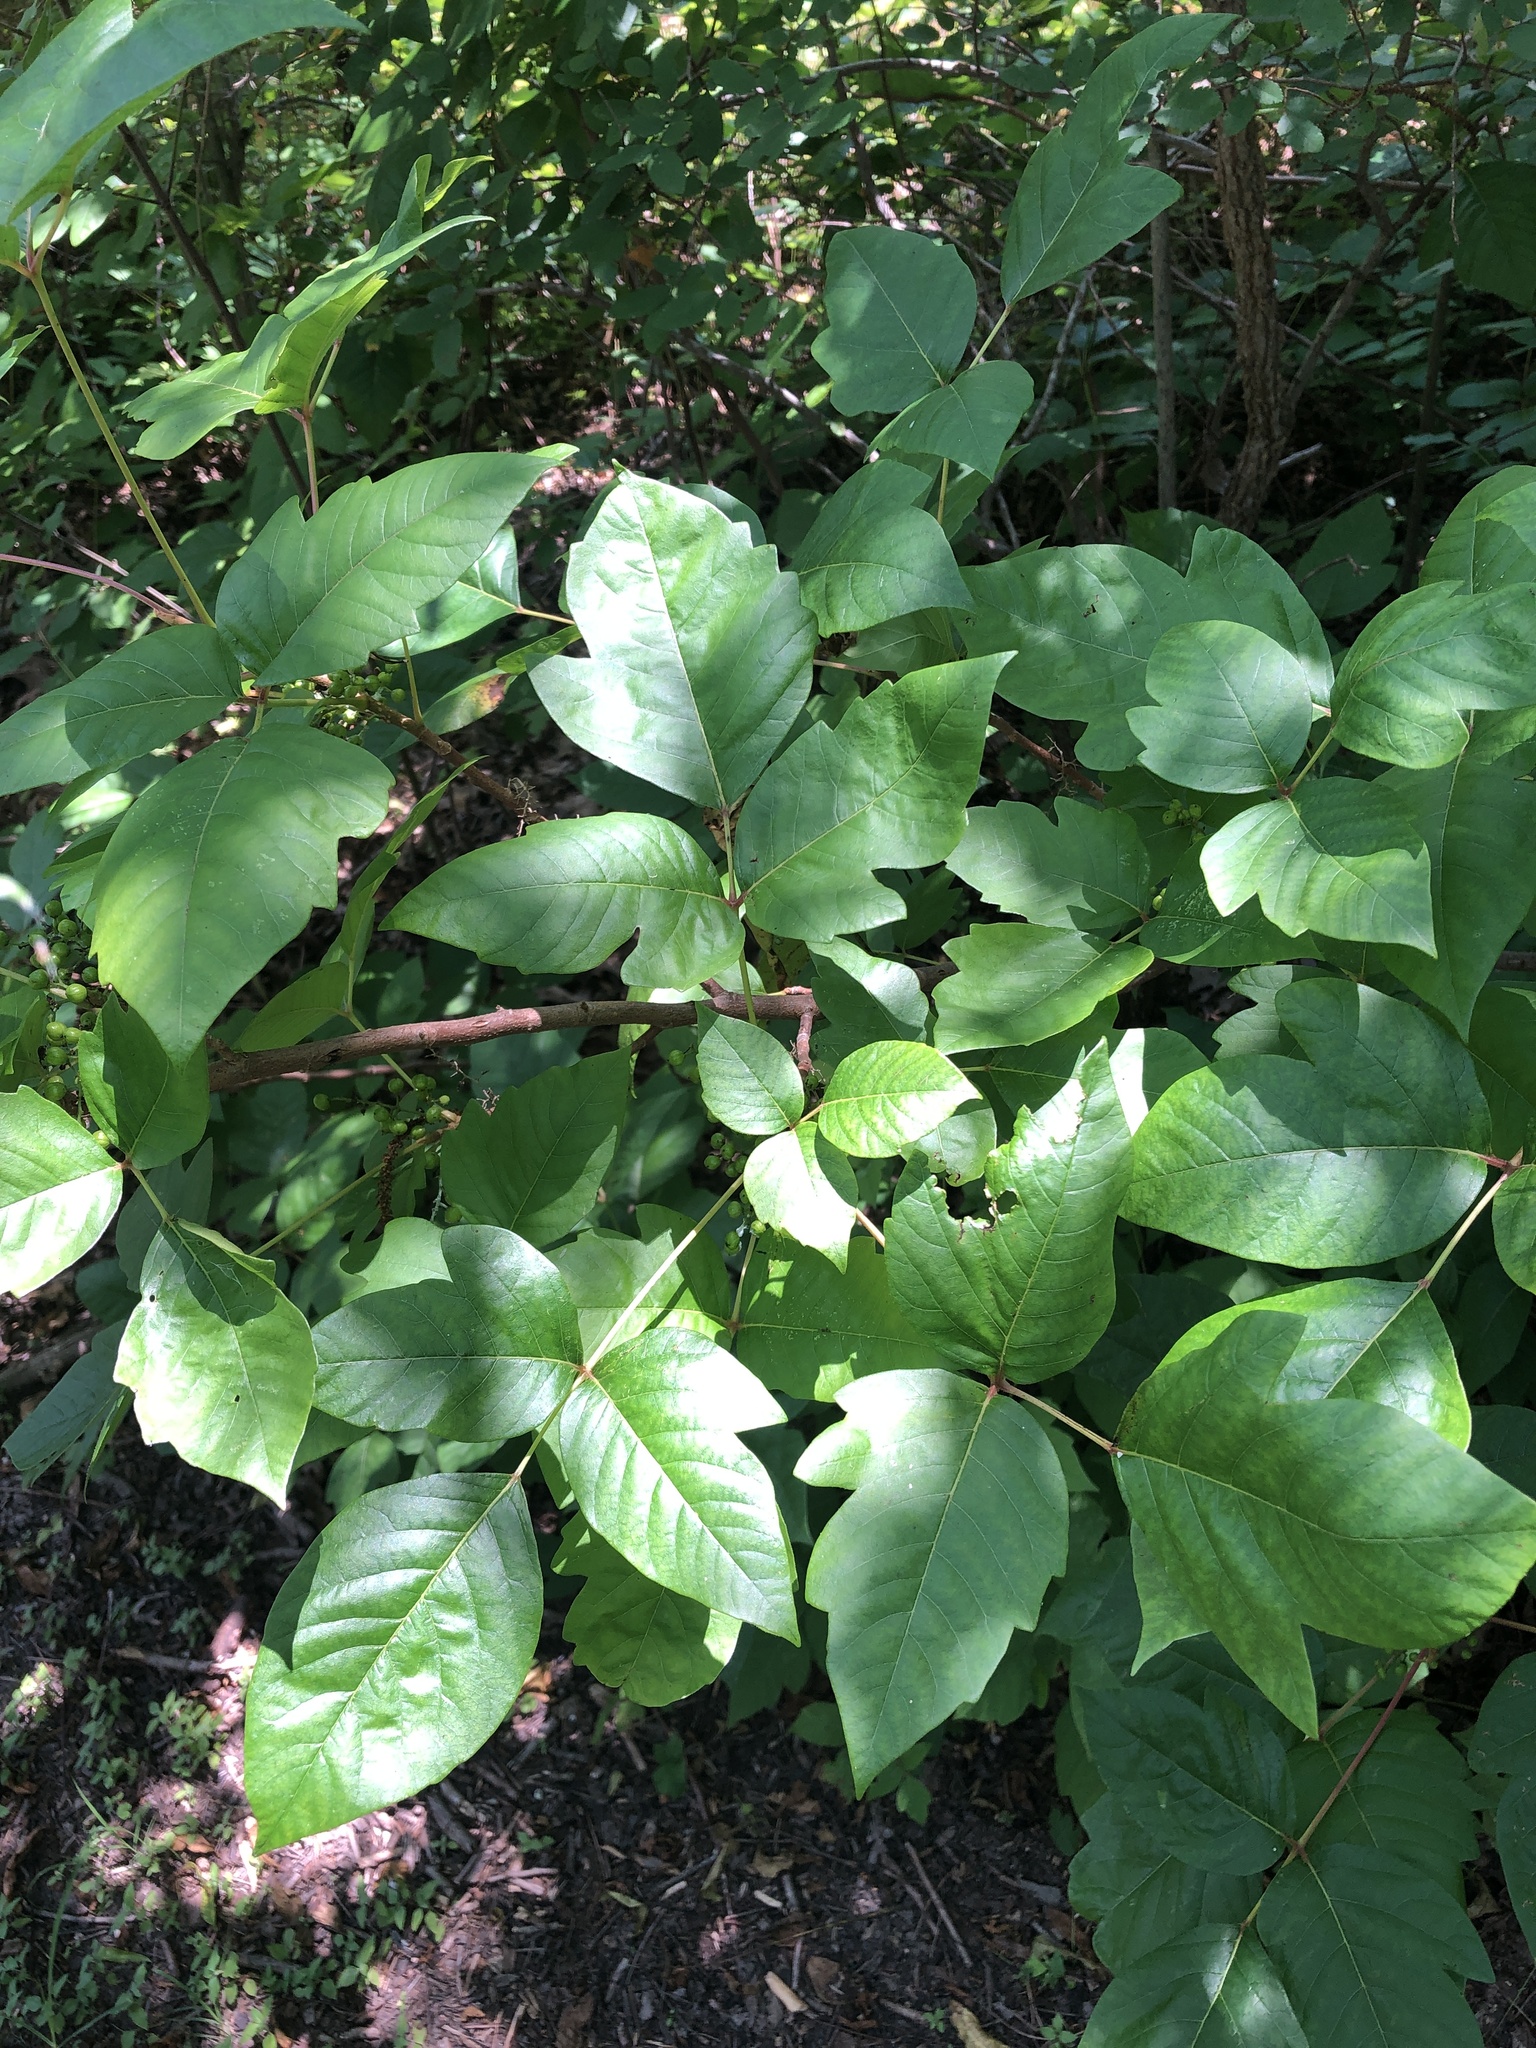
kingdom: Plantae
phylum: Tracheophyta
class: Magnoliopsida
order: Sapindales
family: Anacardiaceae
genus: Toxicodendron
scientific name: Toxicodendron radicans
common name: Poison ivy
